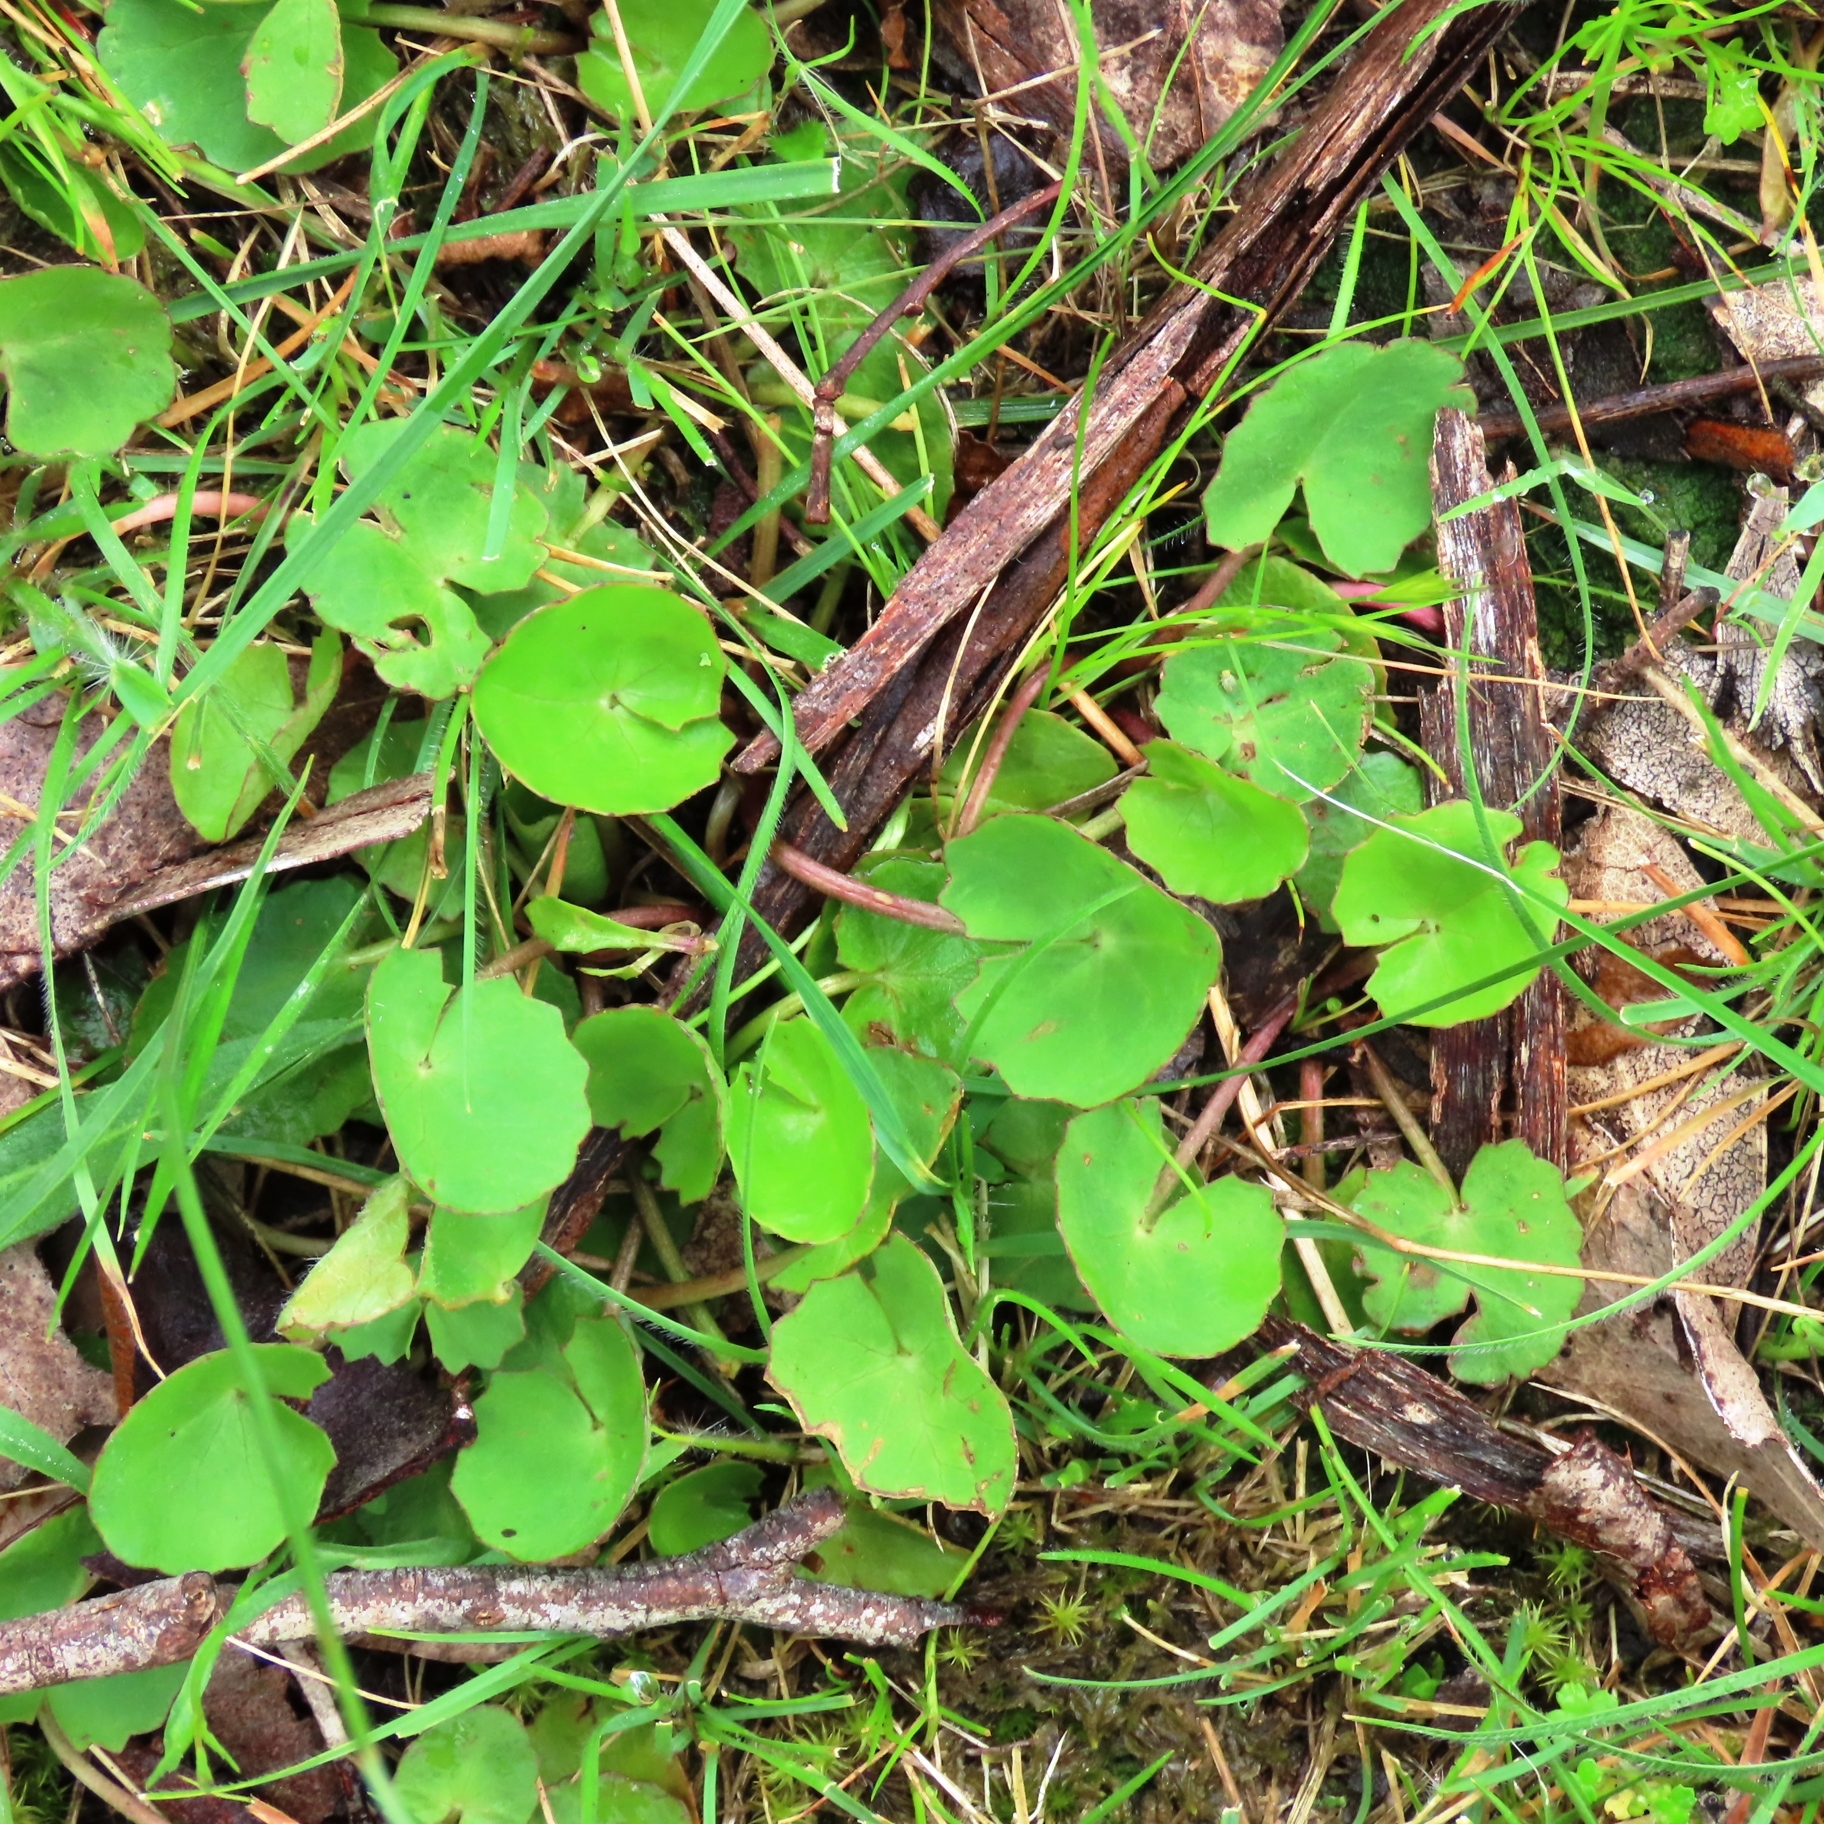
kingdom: Plantae
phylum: Tracheophyta
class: Magnoliopsida
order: Apiales
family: Apiaceae
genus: Centella
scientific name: Centella cordifolia
